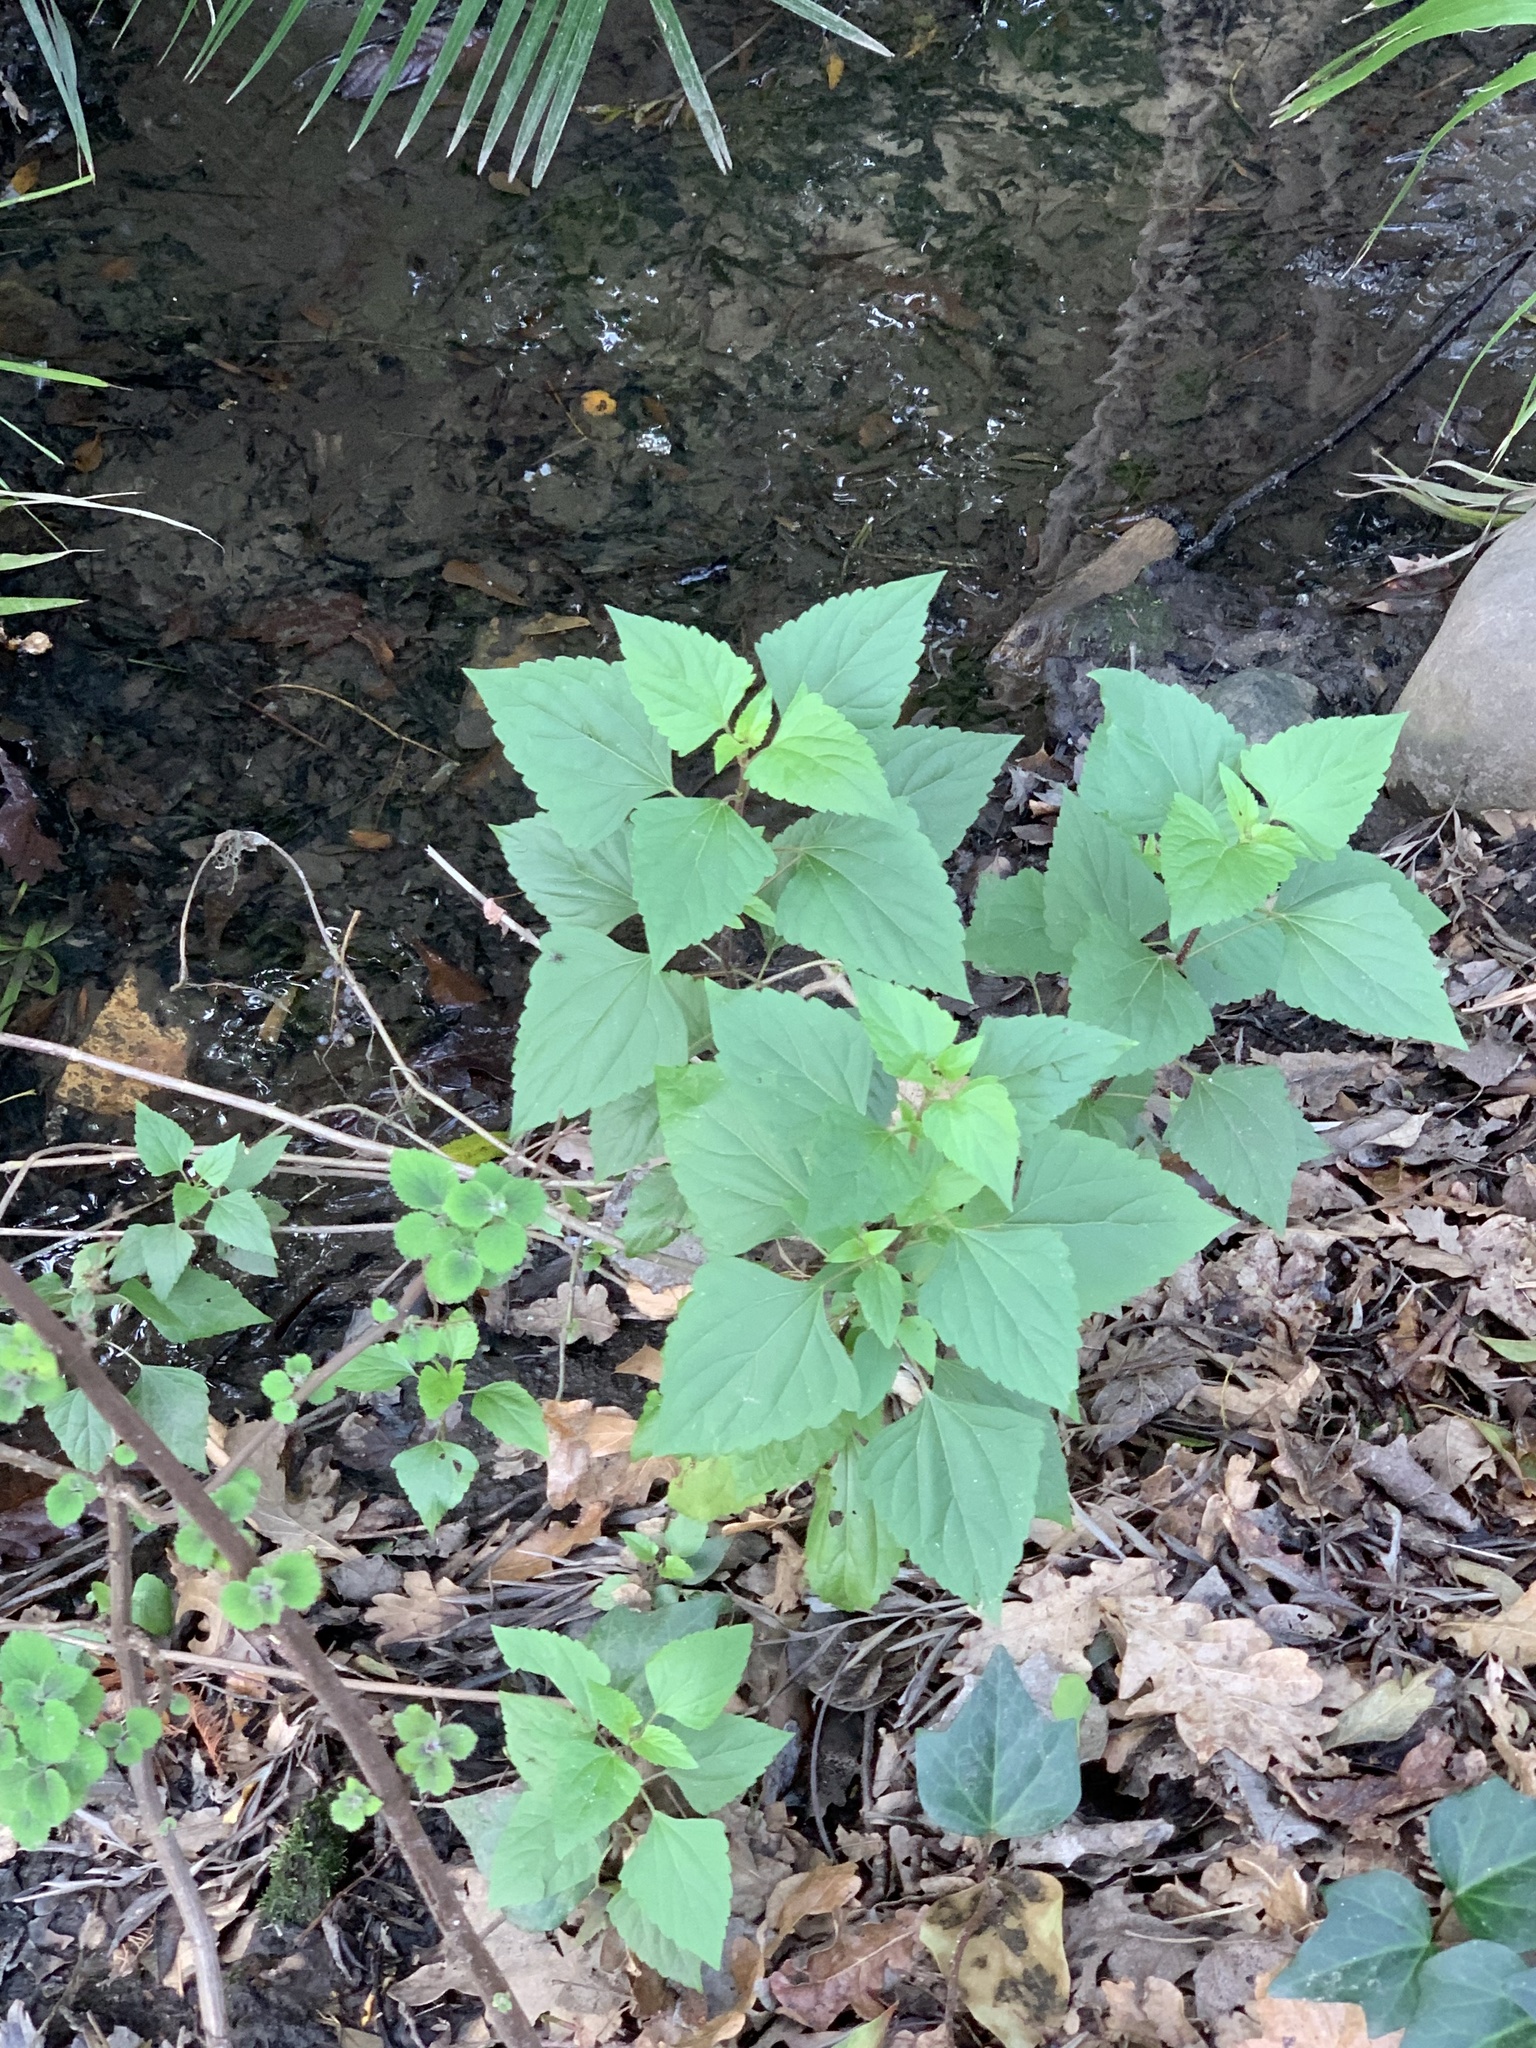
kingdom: Plantae
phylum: Tracheophyta
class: Magnoliopsida
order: Asterales
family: Asteraceae
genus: Ageratina
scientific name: Ageratina adenophora
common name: Sticky snakeroot
